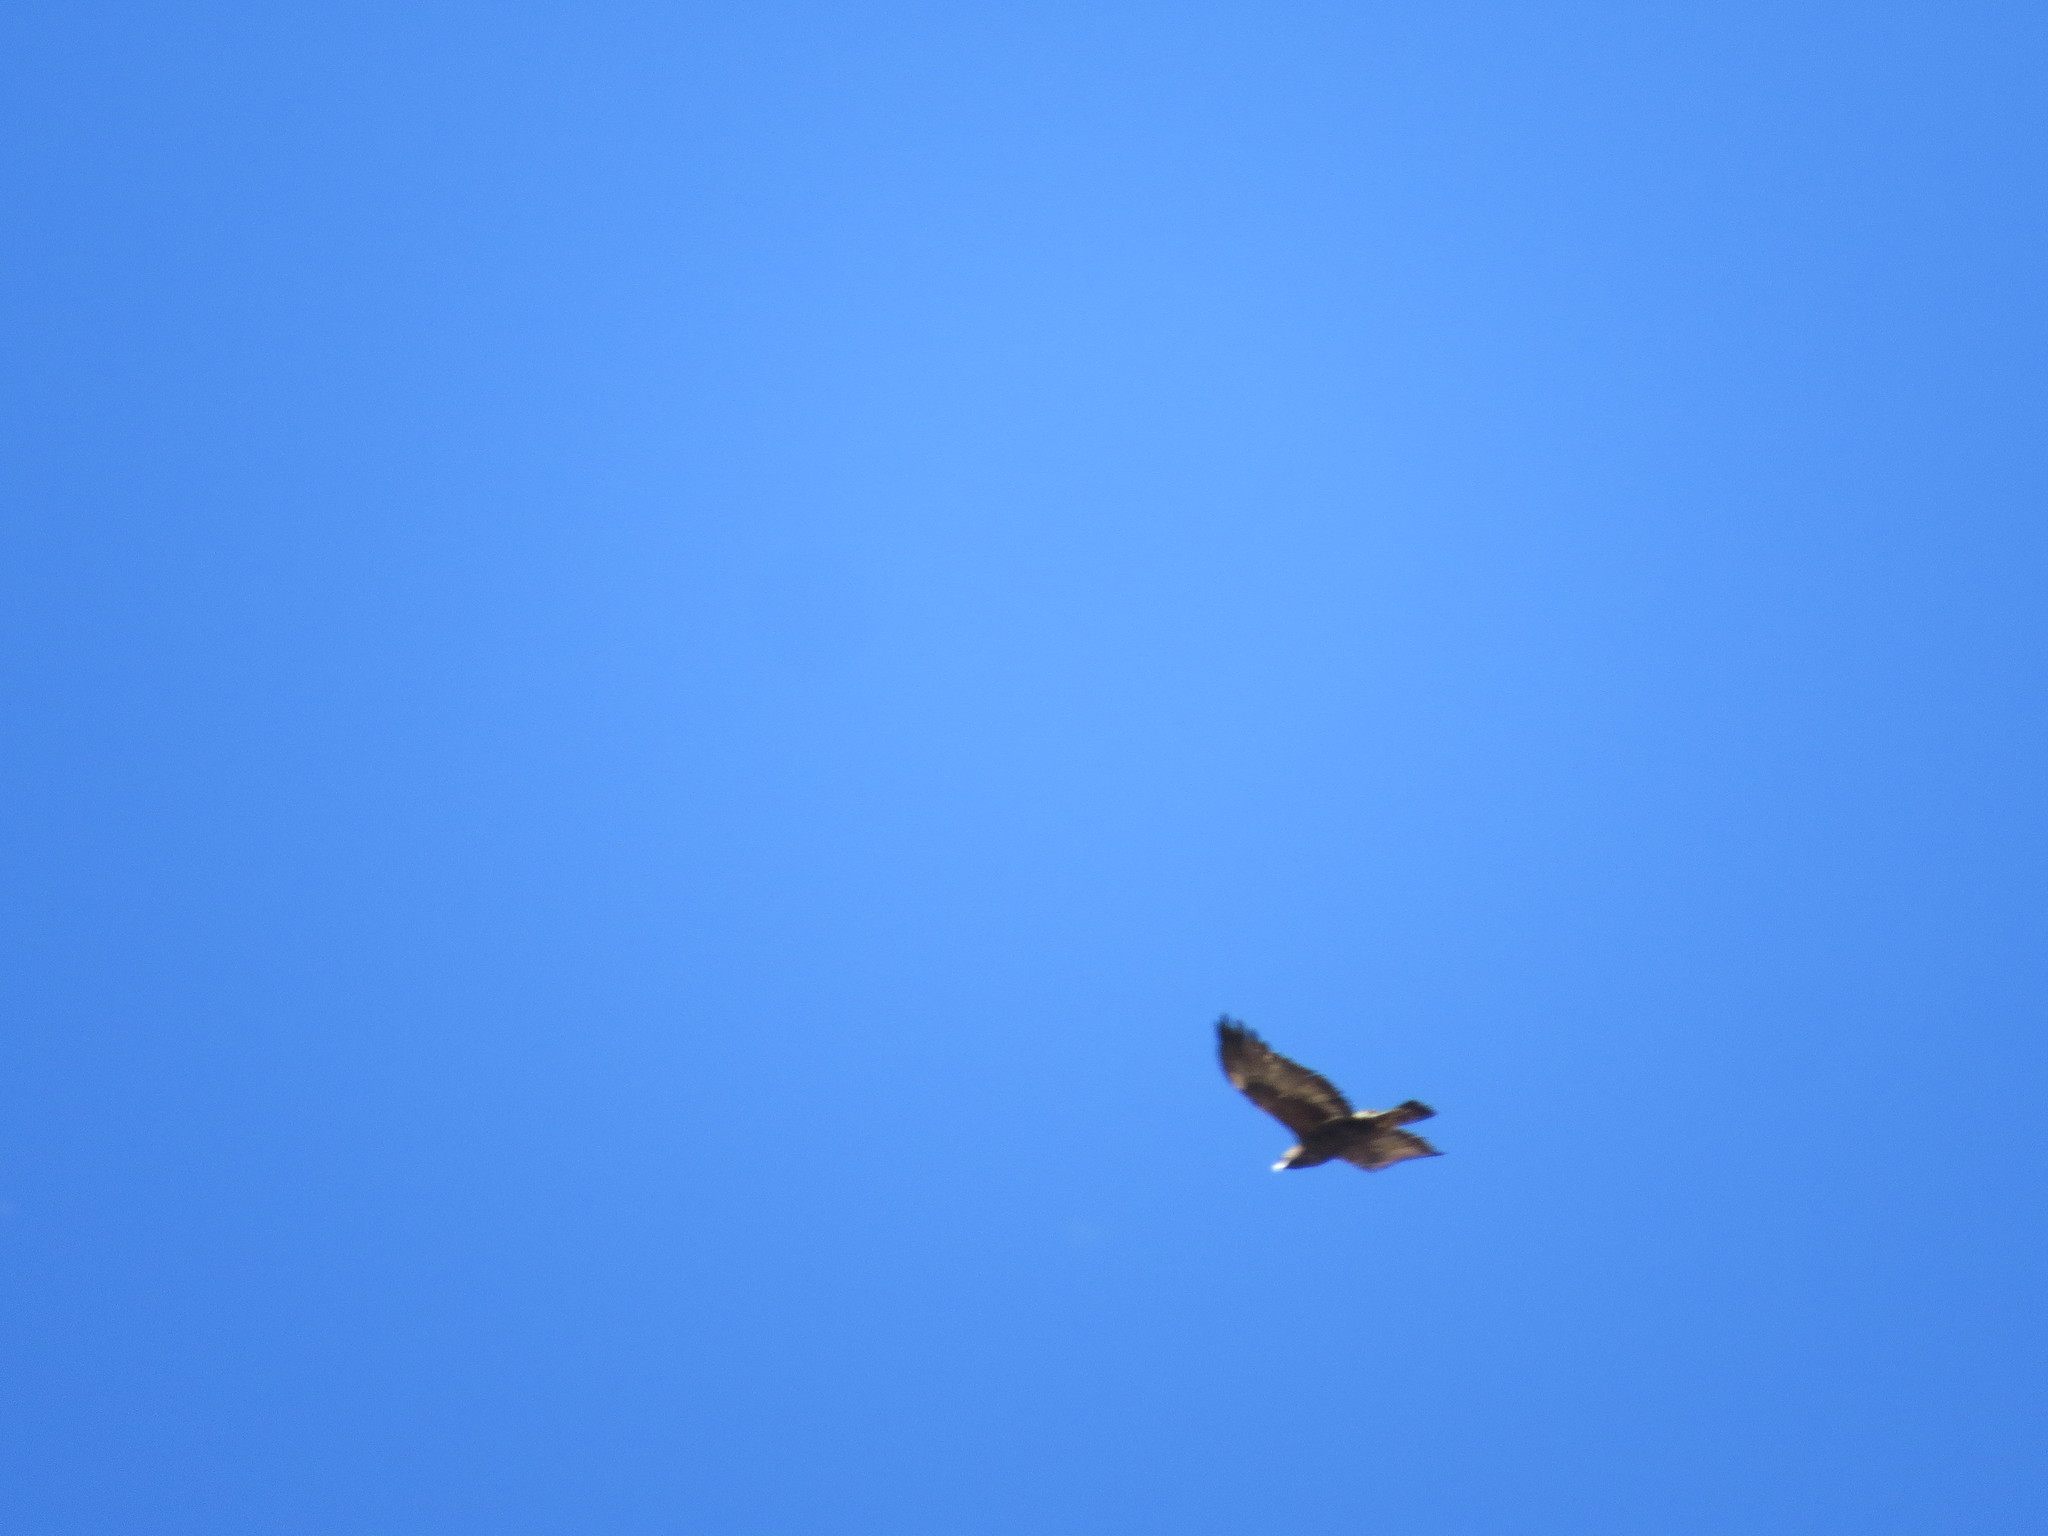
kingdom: Animalia
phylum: Chordata
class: Aves
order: Accipitriformes
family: Accipitridae
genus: Aquila
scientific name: Aquila chrysaetos
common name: Golden eagle
